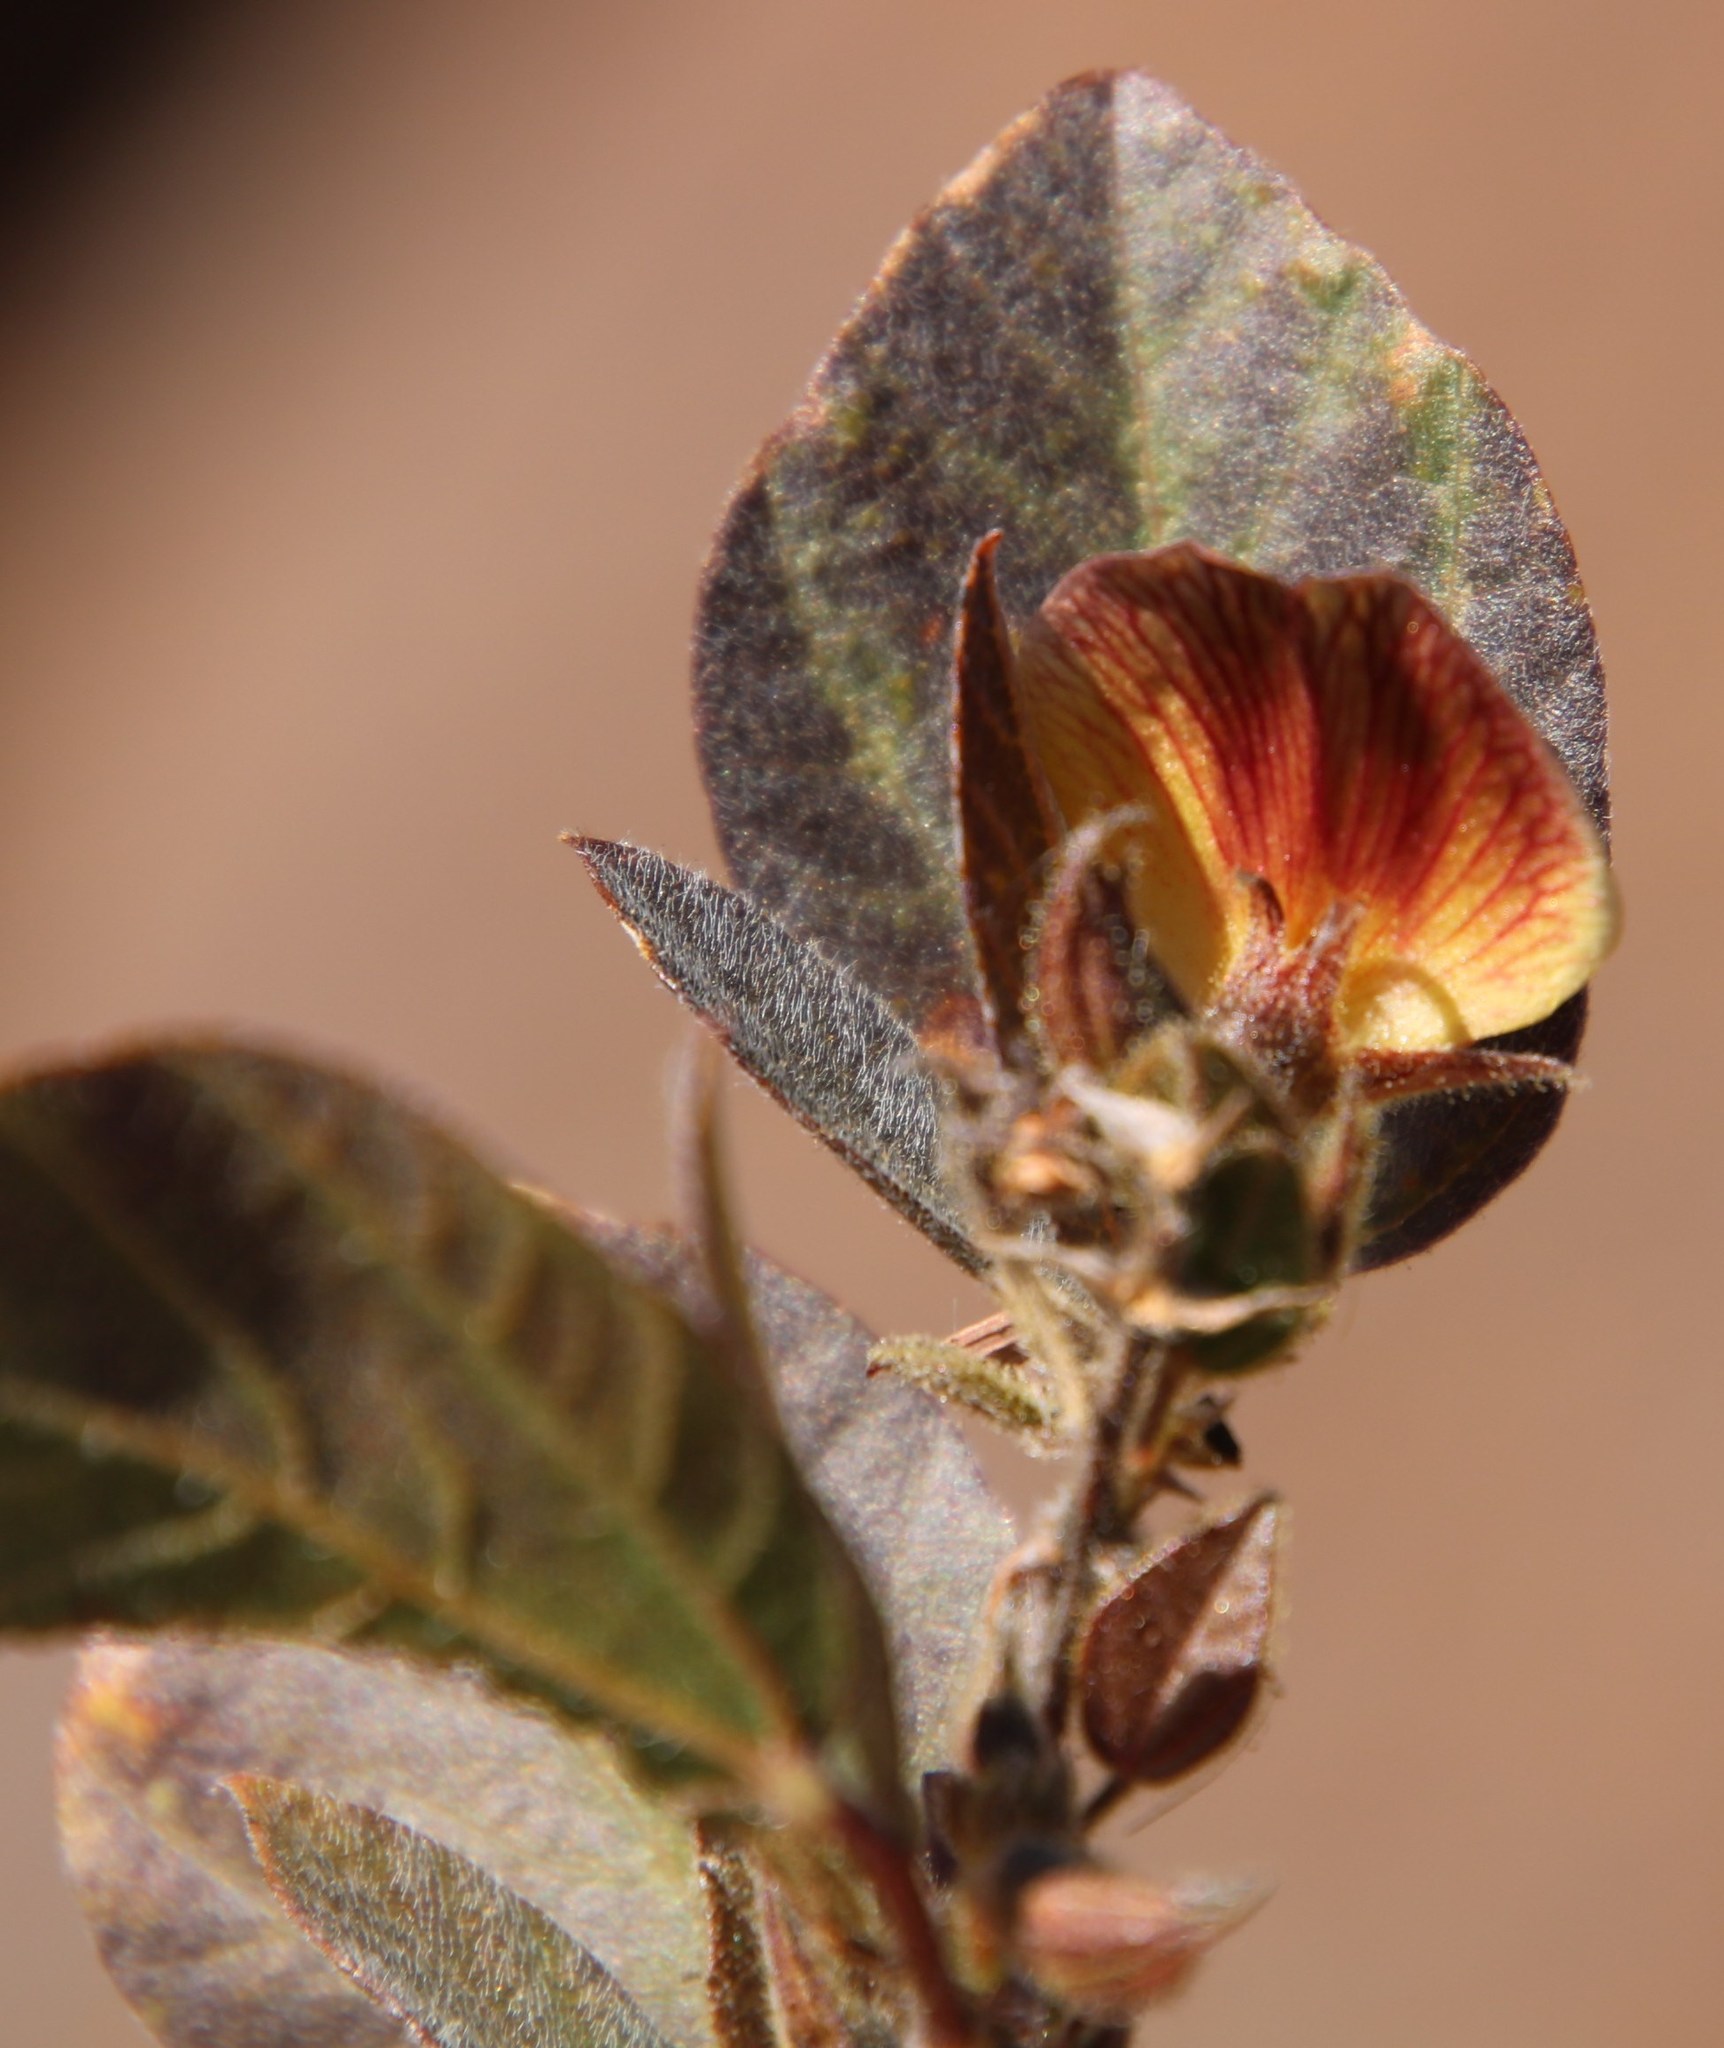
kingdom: Plantae
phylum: Tracheophyta
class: Magnoliopsida
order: Fabales
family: Fabaceae
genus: Rhynchosia
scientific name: Rhynchosia monophylla
